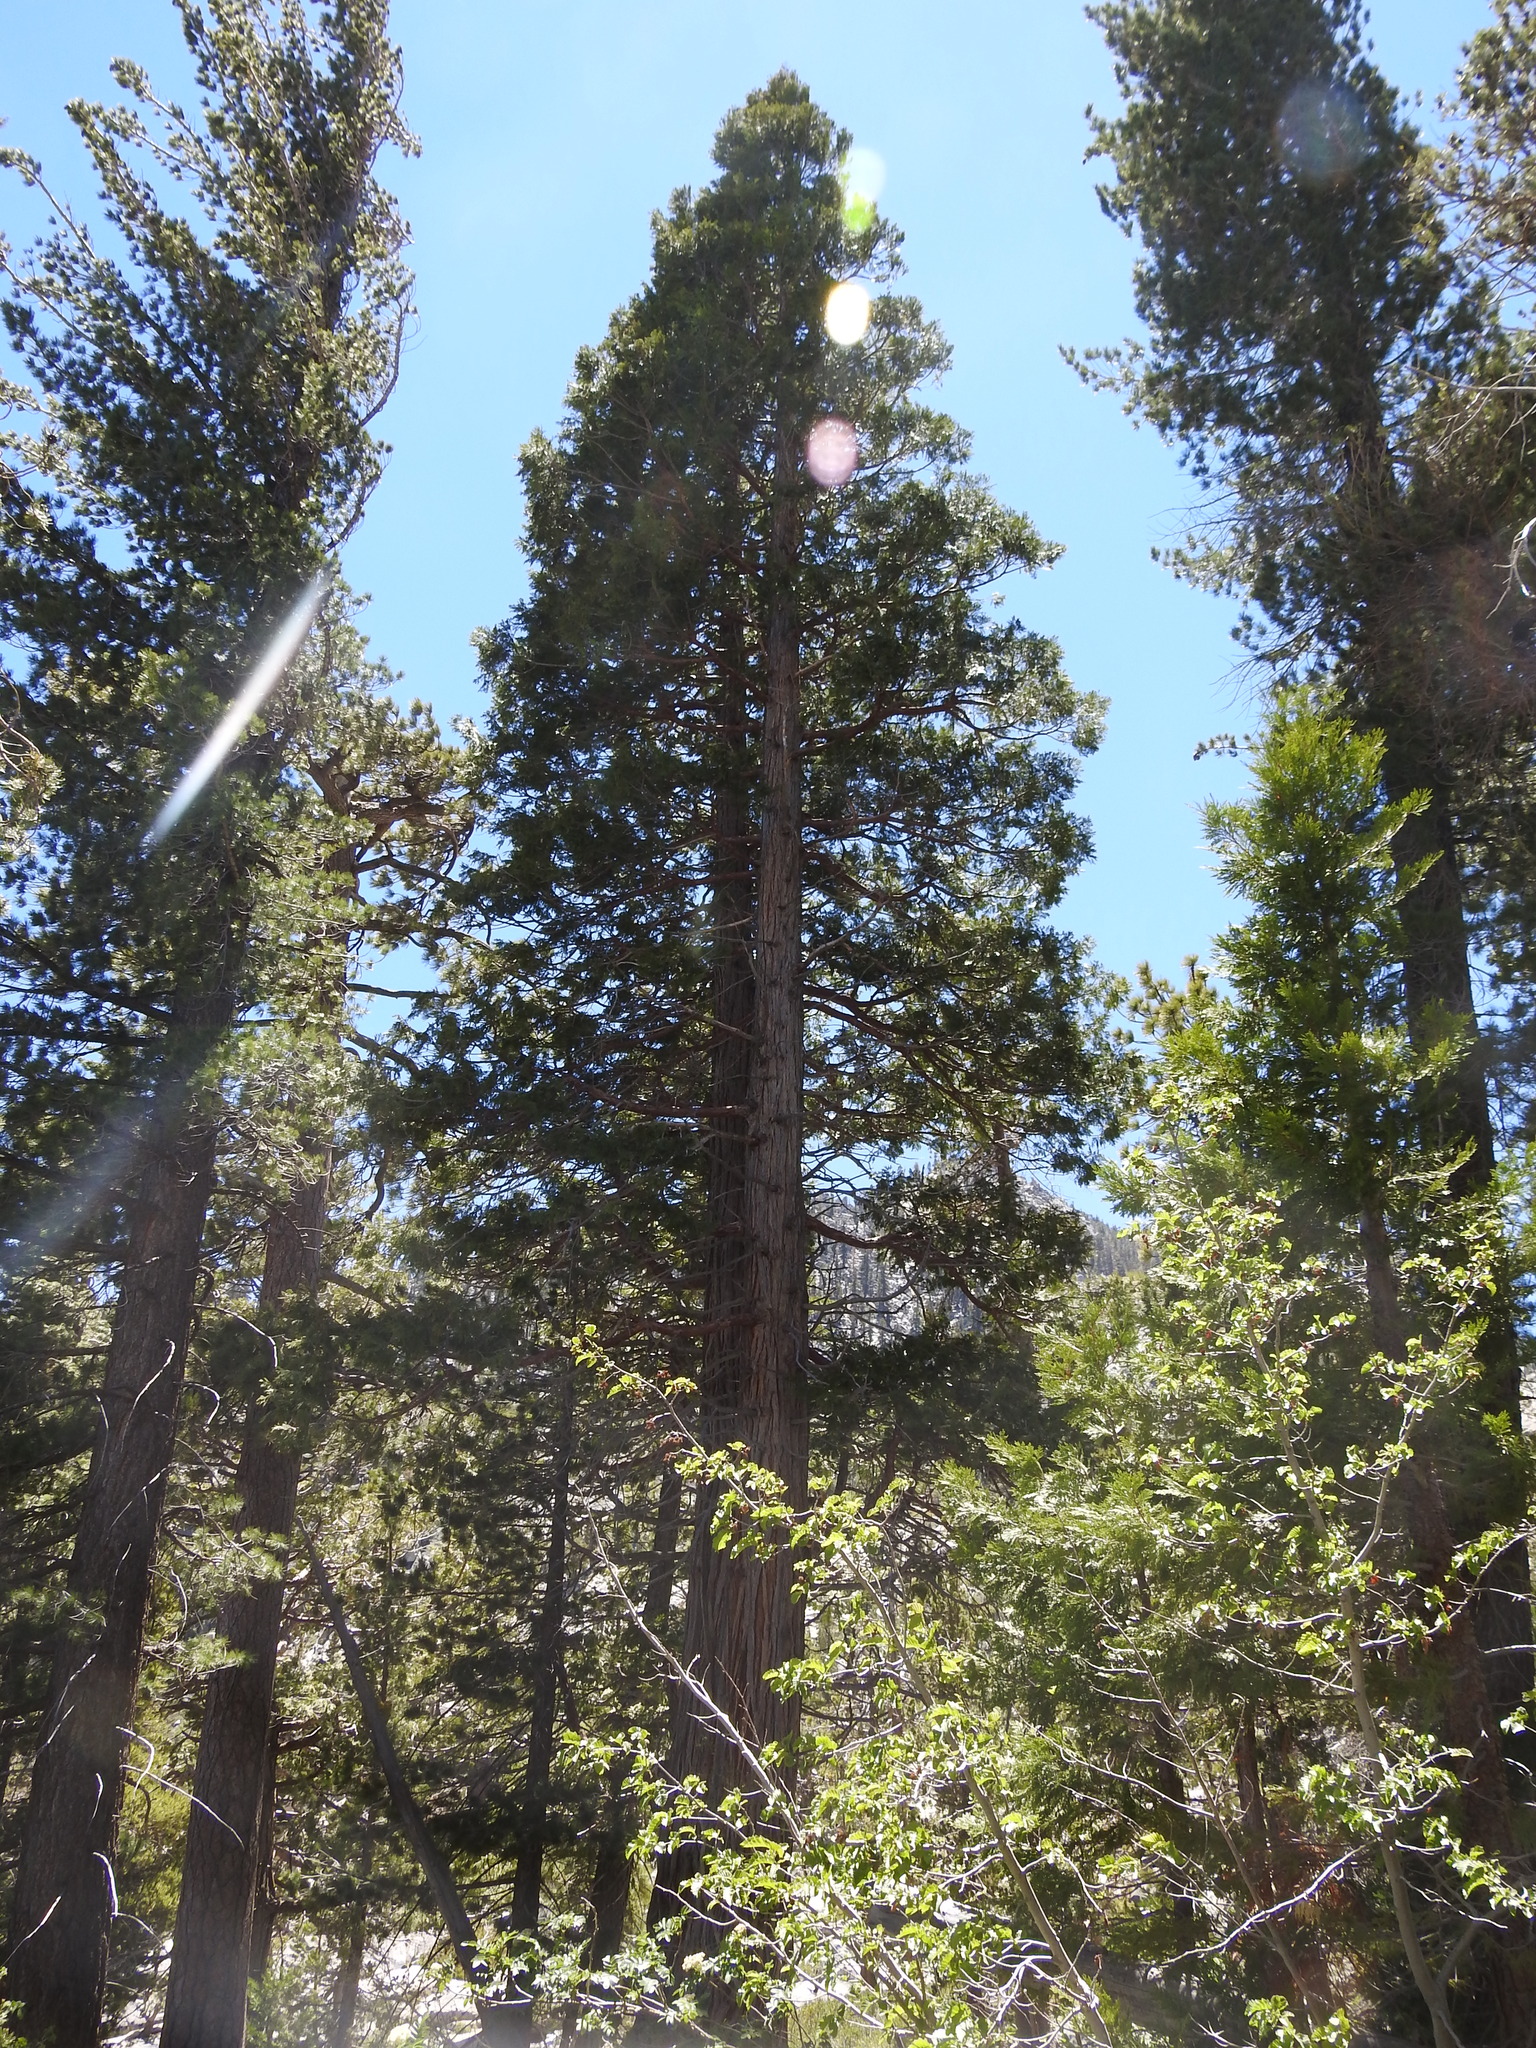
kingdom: Plantae
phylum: Tracheophyta
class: Pinopsida
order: Pinales
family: Cupressaceae
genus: Calocedrus
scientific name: Calocedrus decurrens
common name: Californian incense-cedar
